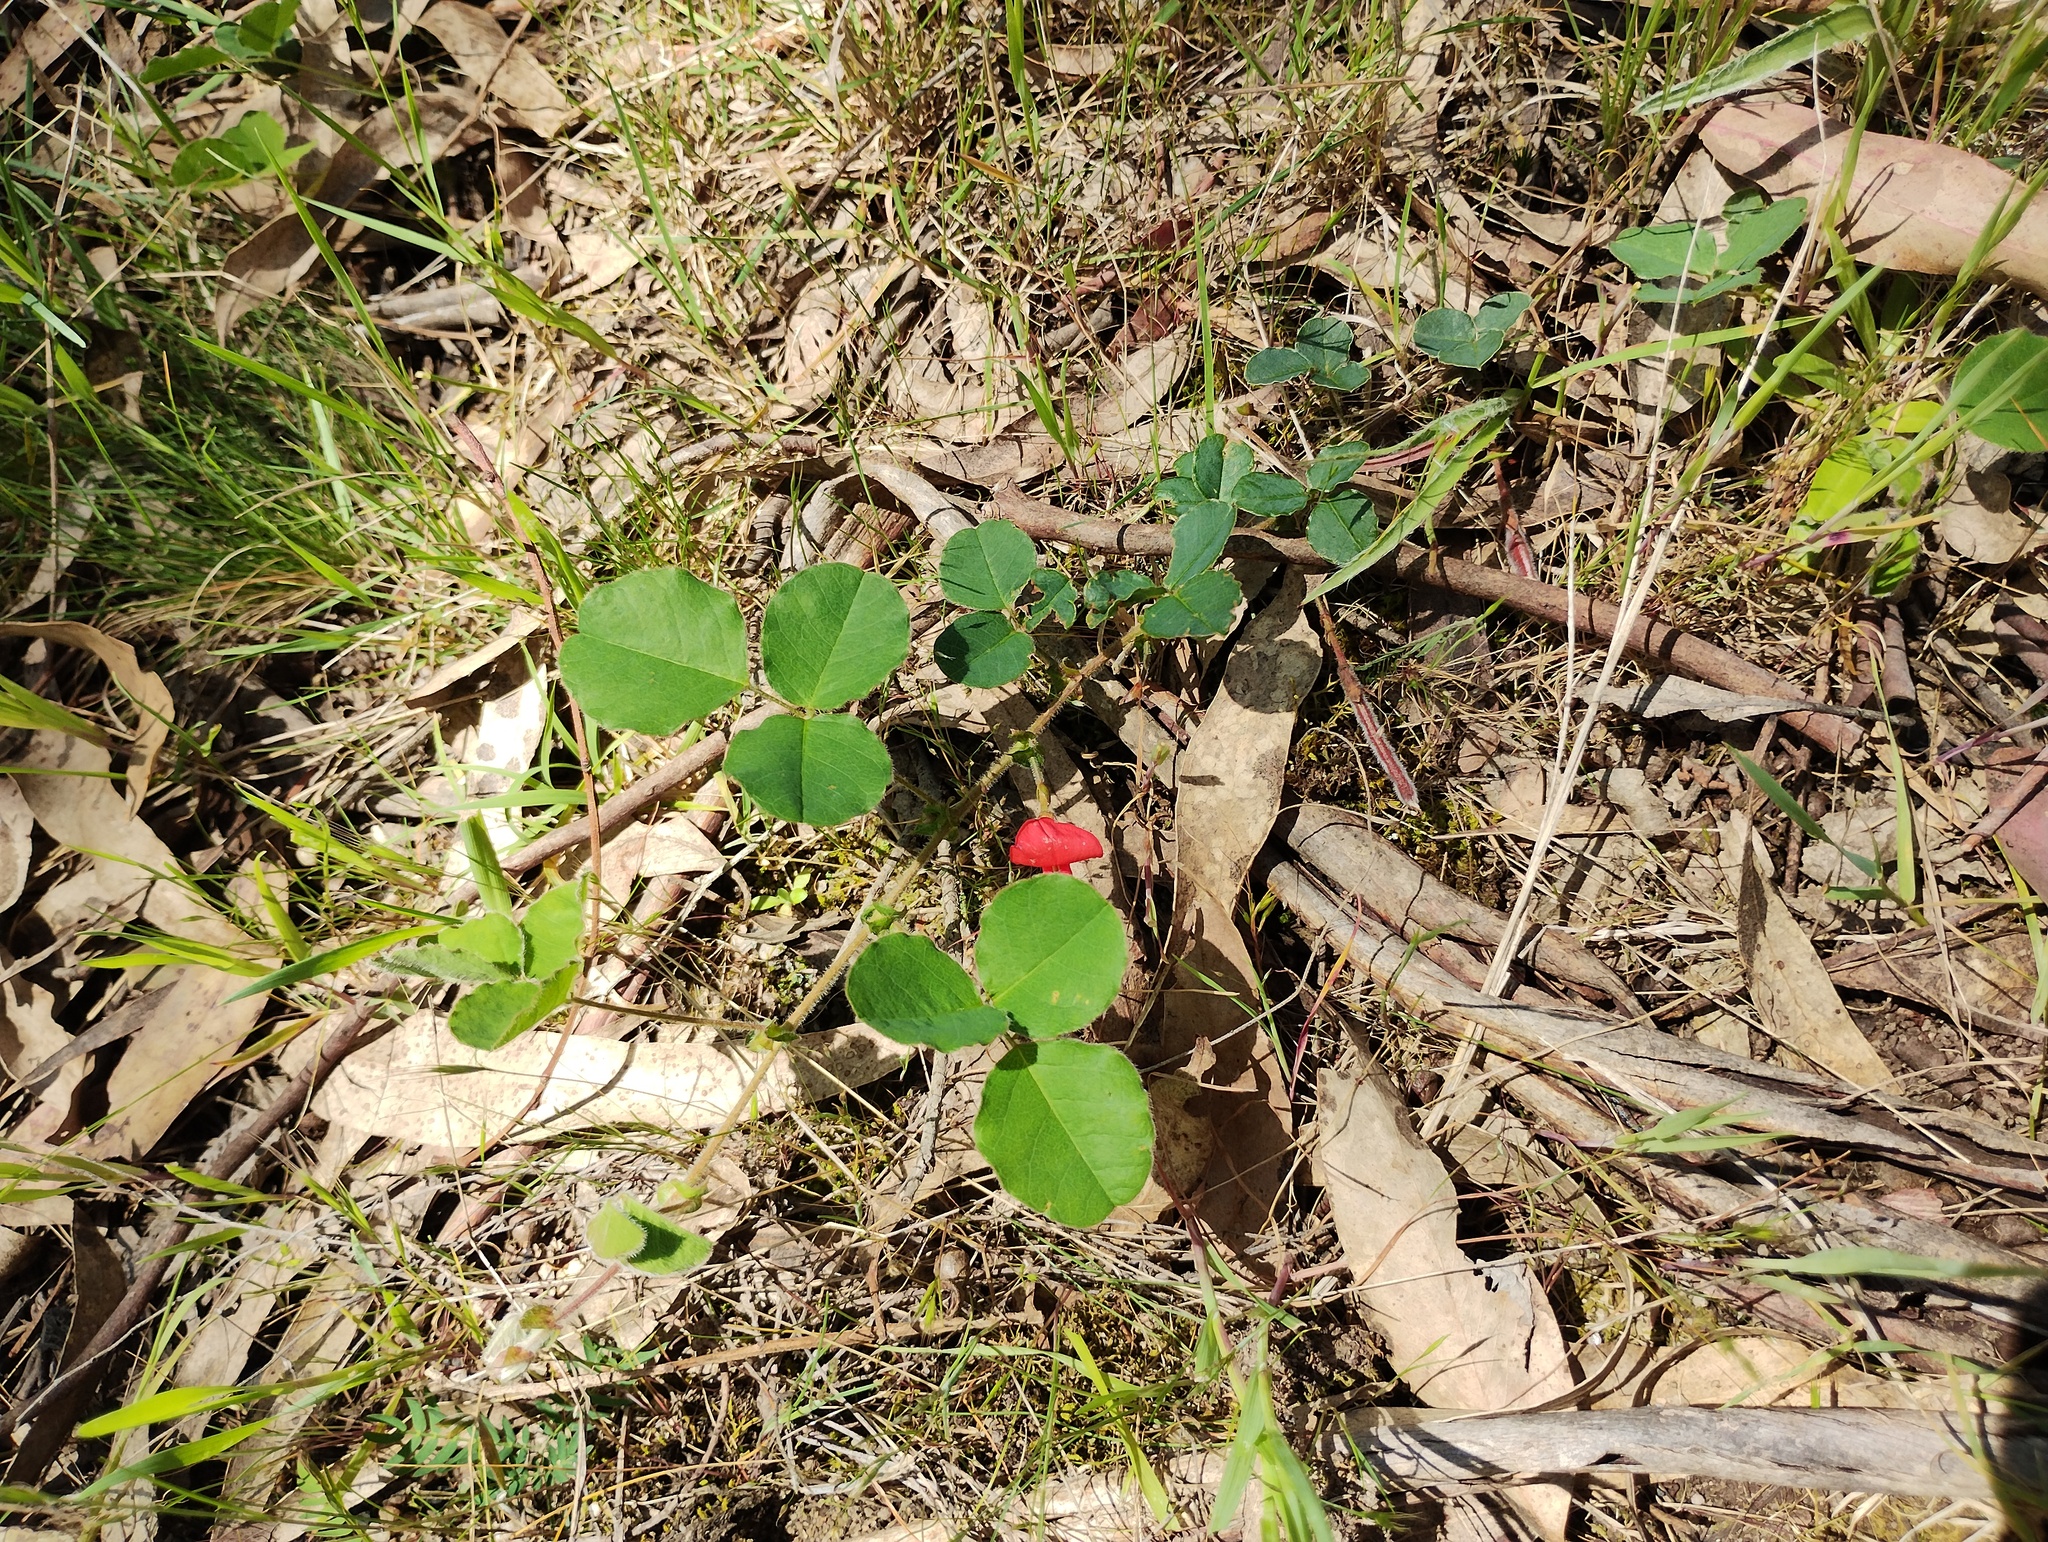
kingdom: Plantae
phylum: Tracheophyta
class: Magnoliopsida
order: Fabales
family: Fabaceae
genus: Kennedia
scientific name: Kennedia prostrata
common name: Running-postman
